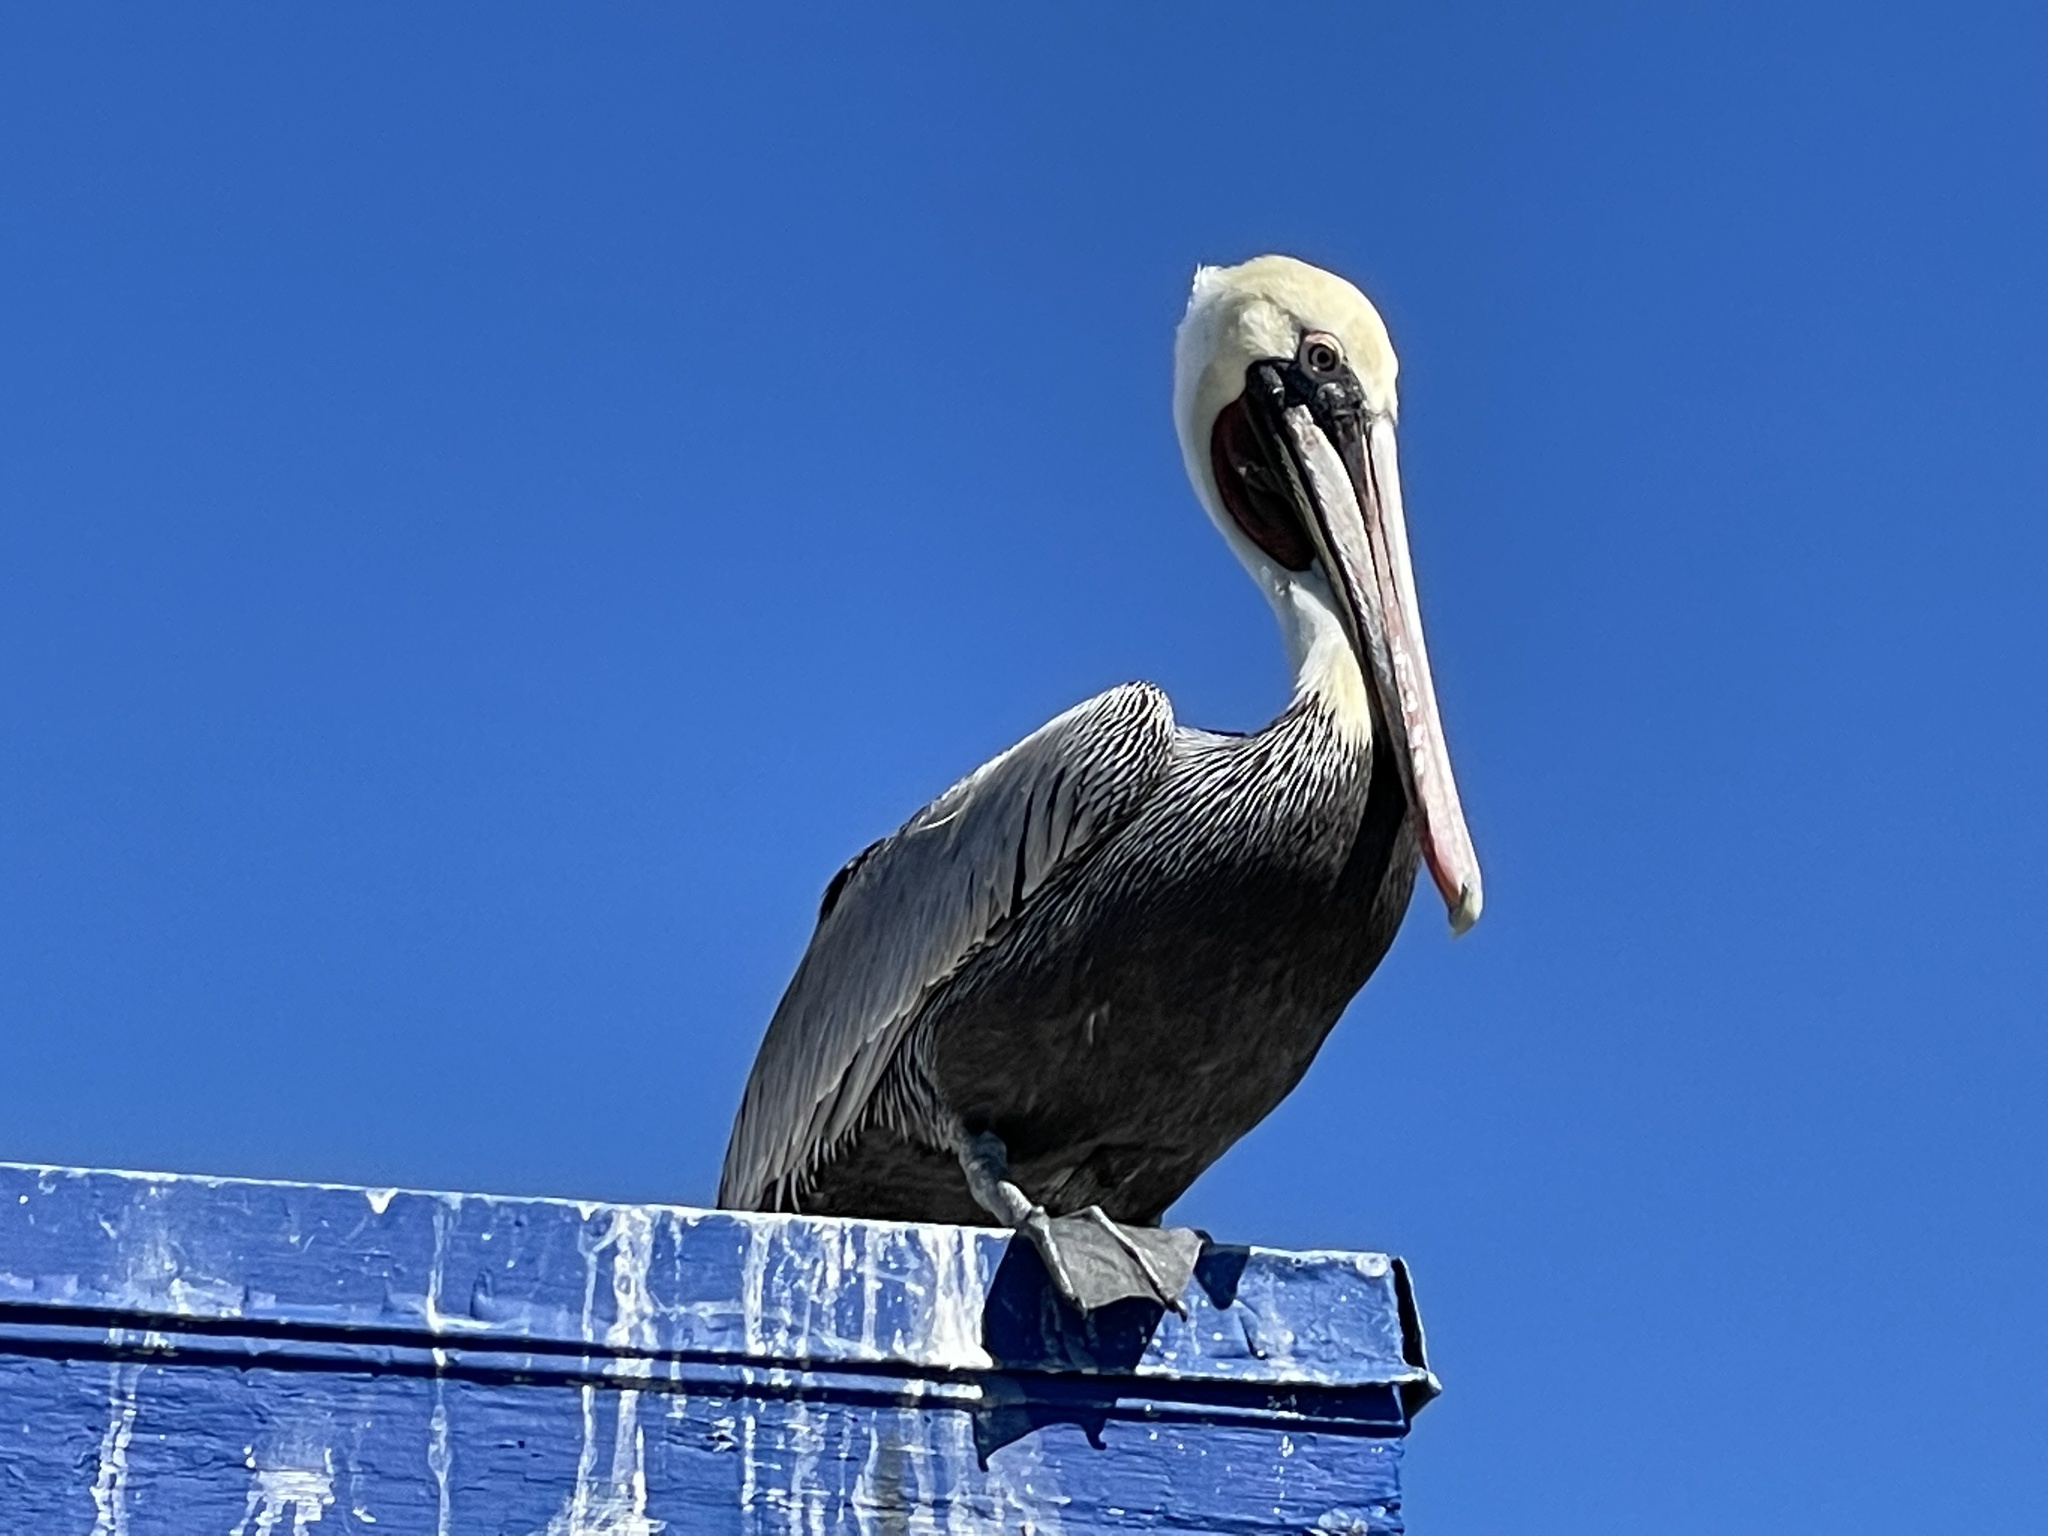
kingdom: Animalia
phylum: Chordata
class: Aves
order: Pelecaniformes
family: Pelecanidae
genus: Pelecanus
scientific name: Pelecanus occidentalis
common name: Brown pelican
